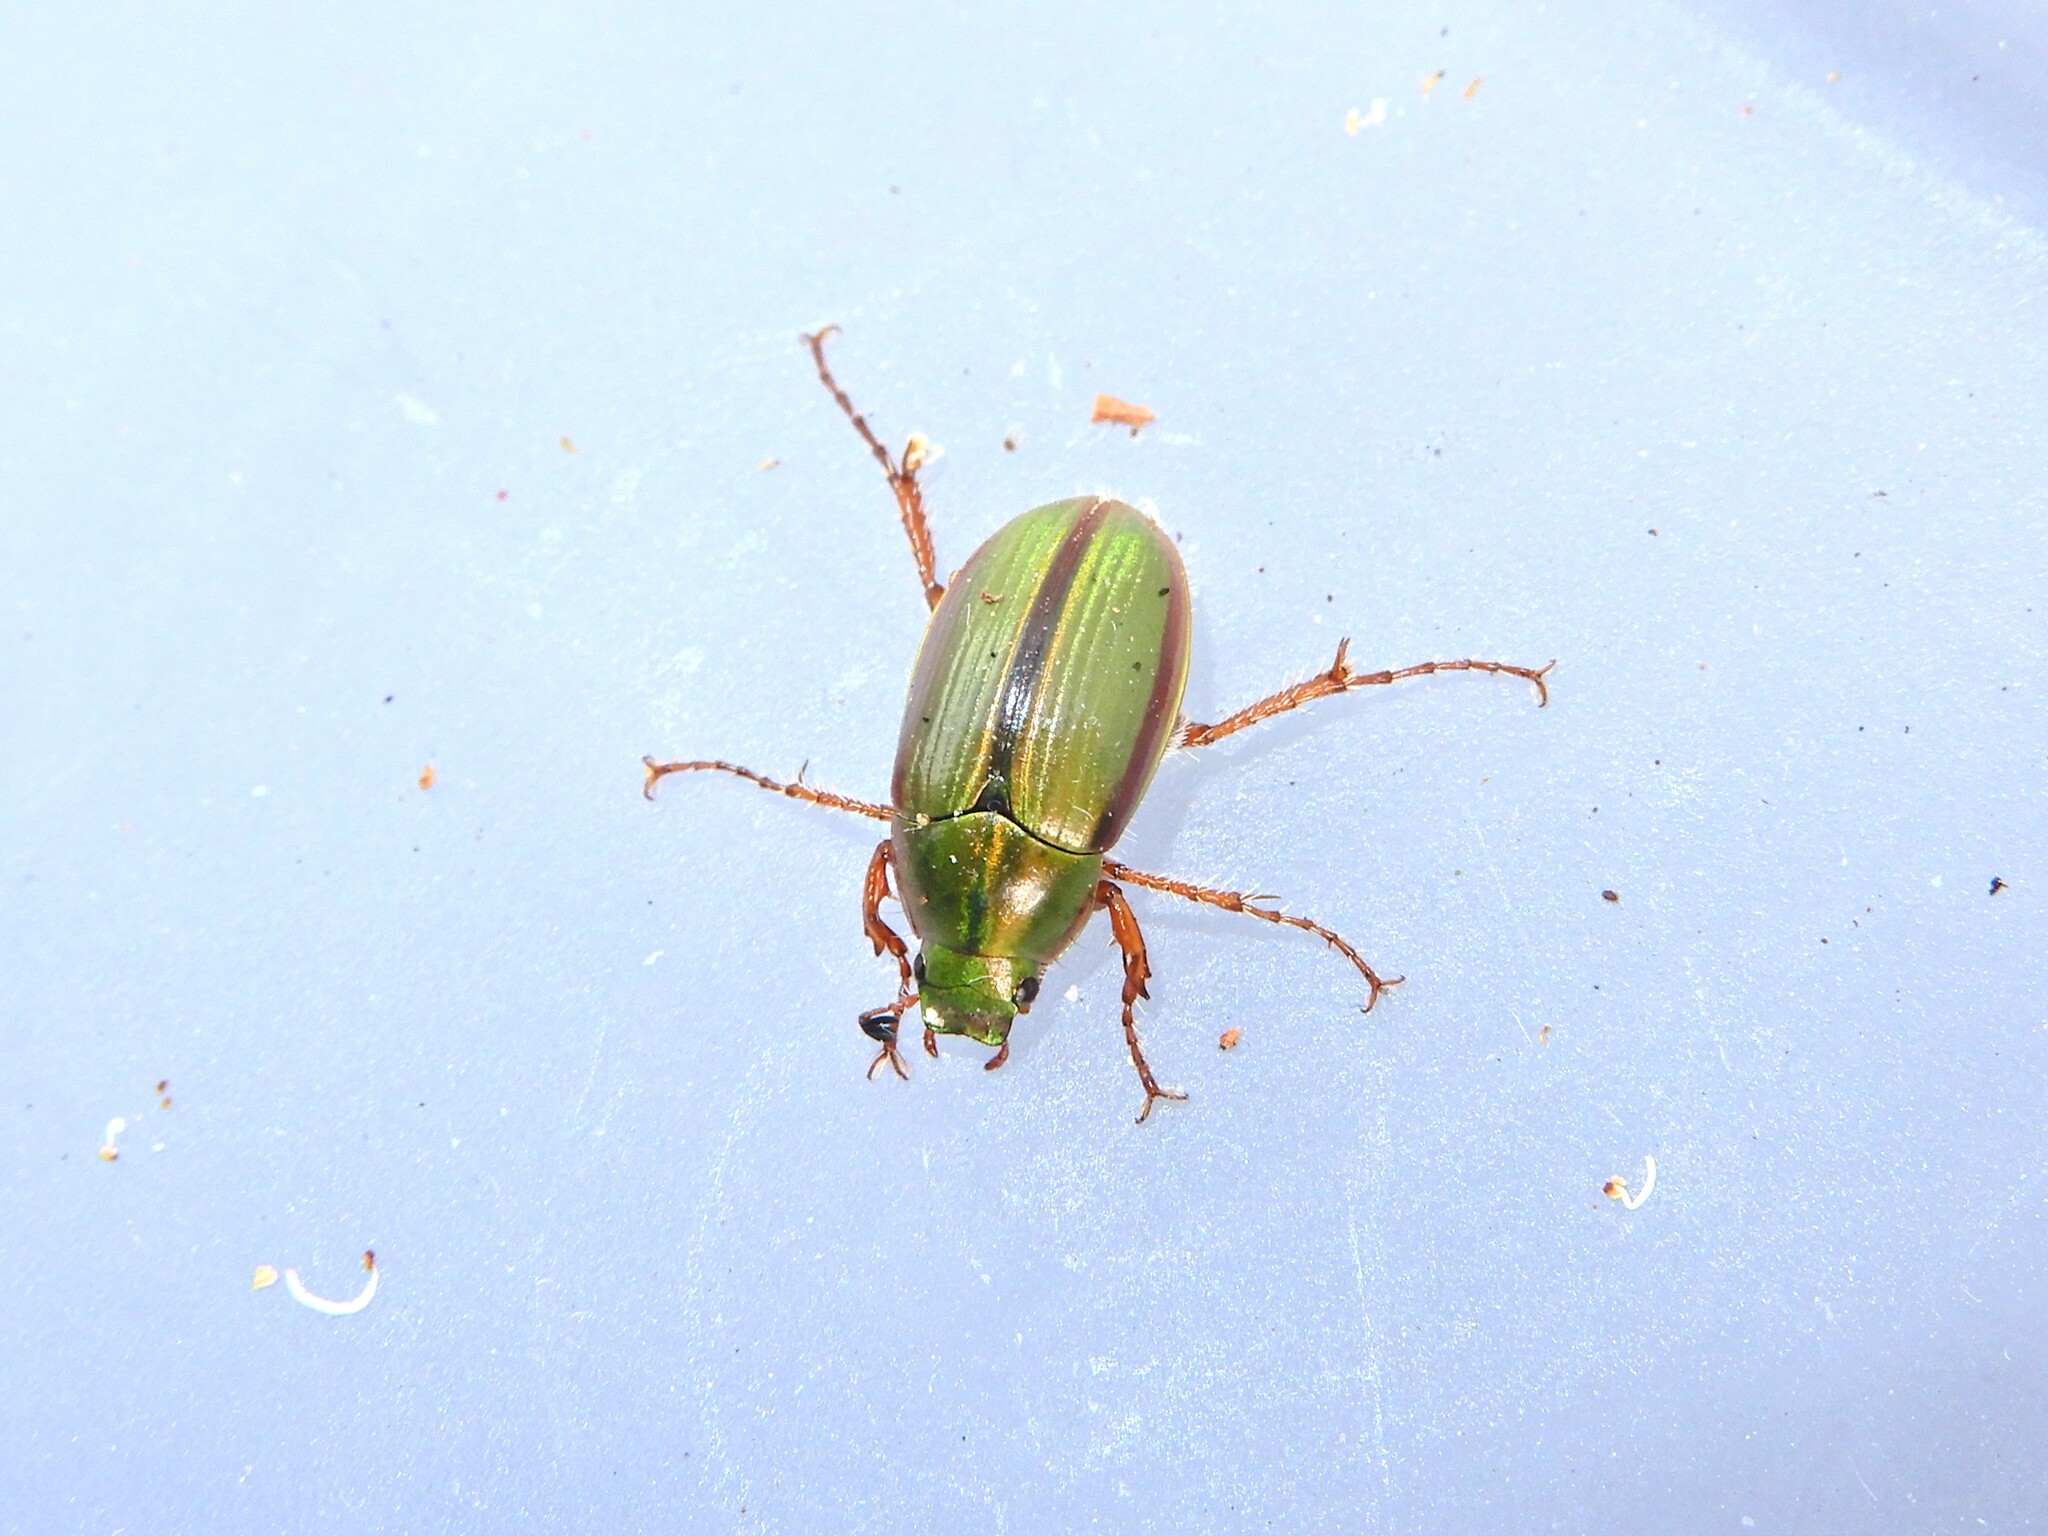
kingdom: Animalia
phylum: Arthropoda
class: Insecta
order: Coleoptera
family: Scarabaeidae
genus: Pyronota
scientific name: Pyronota festiva
